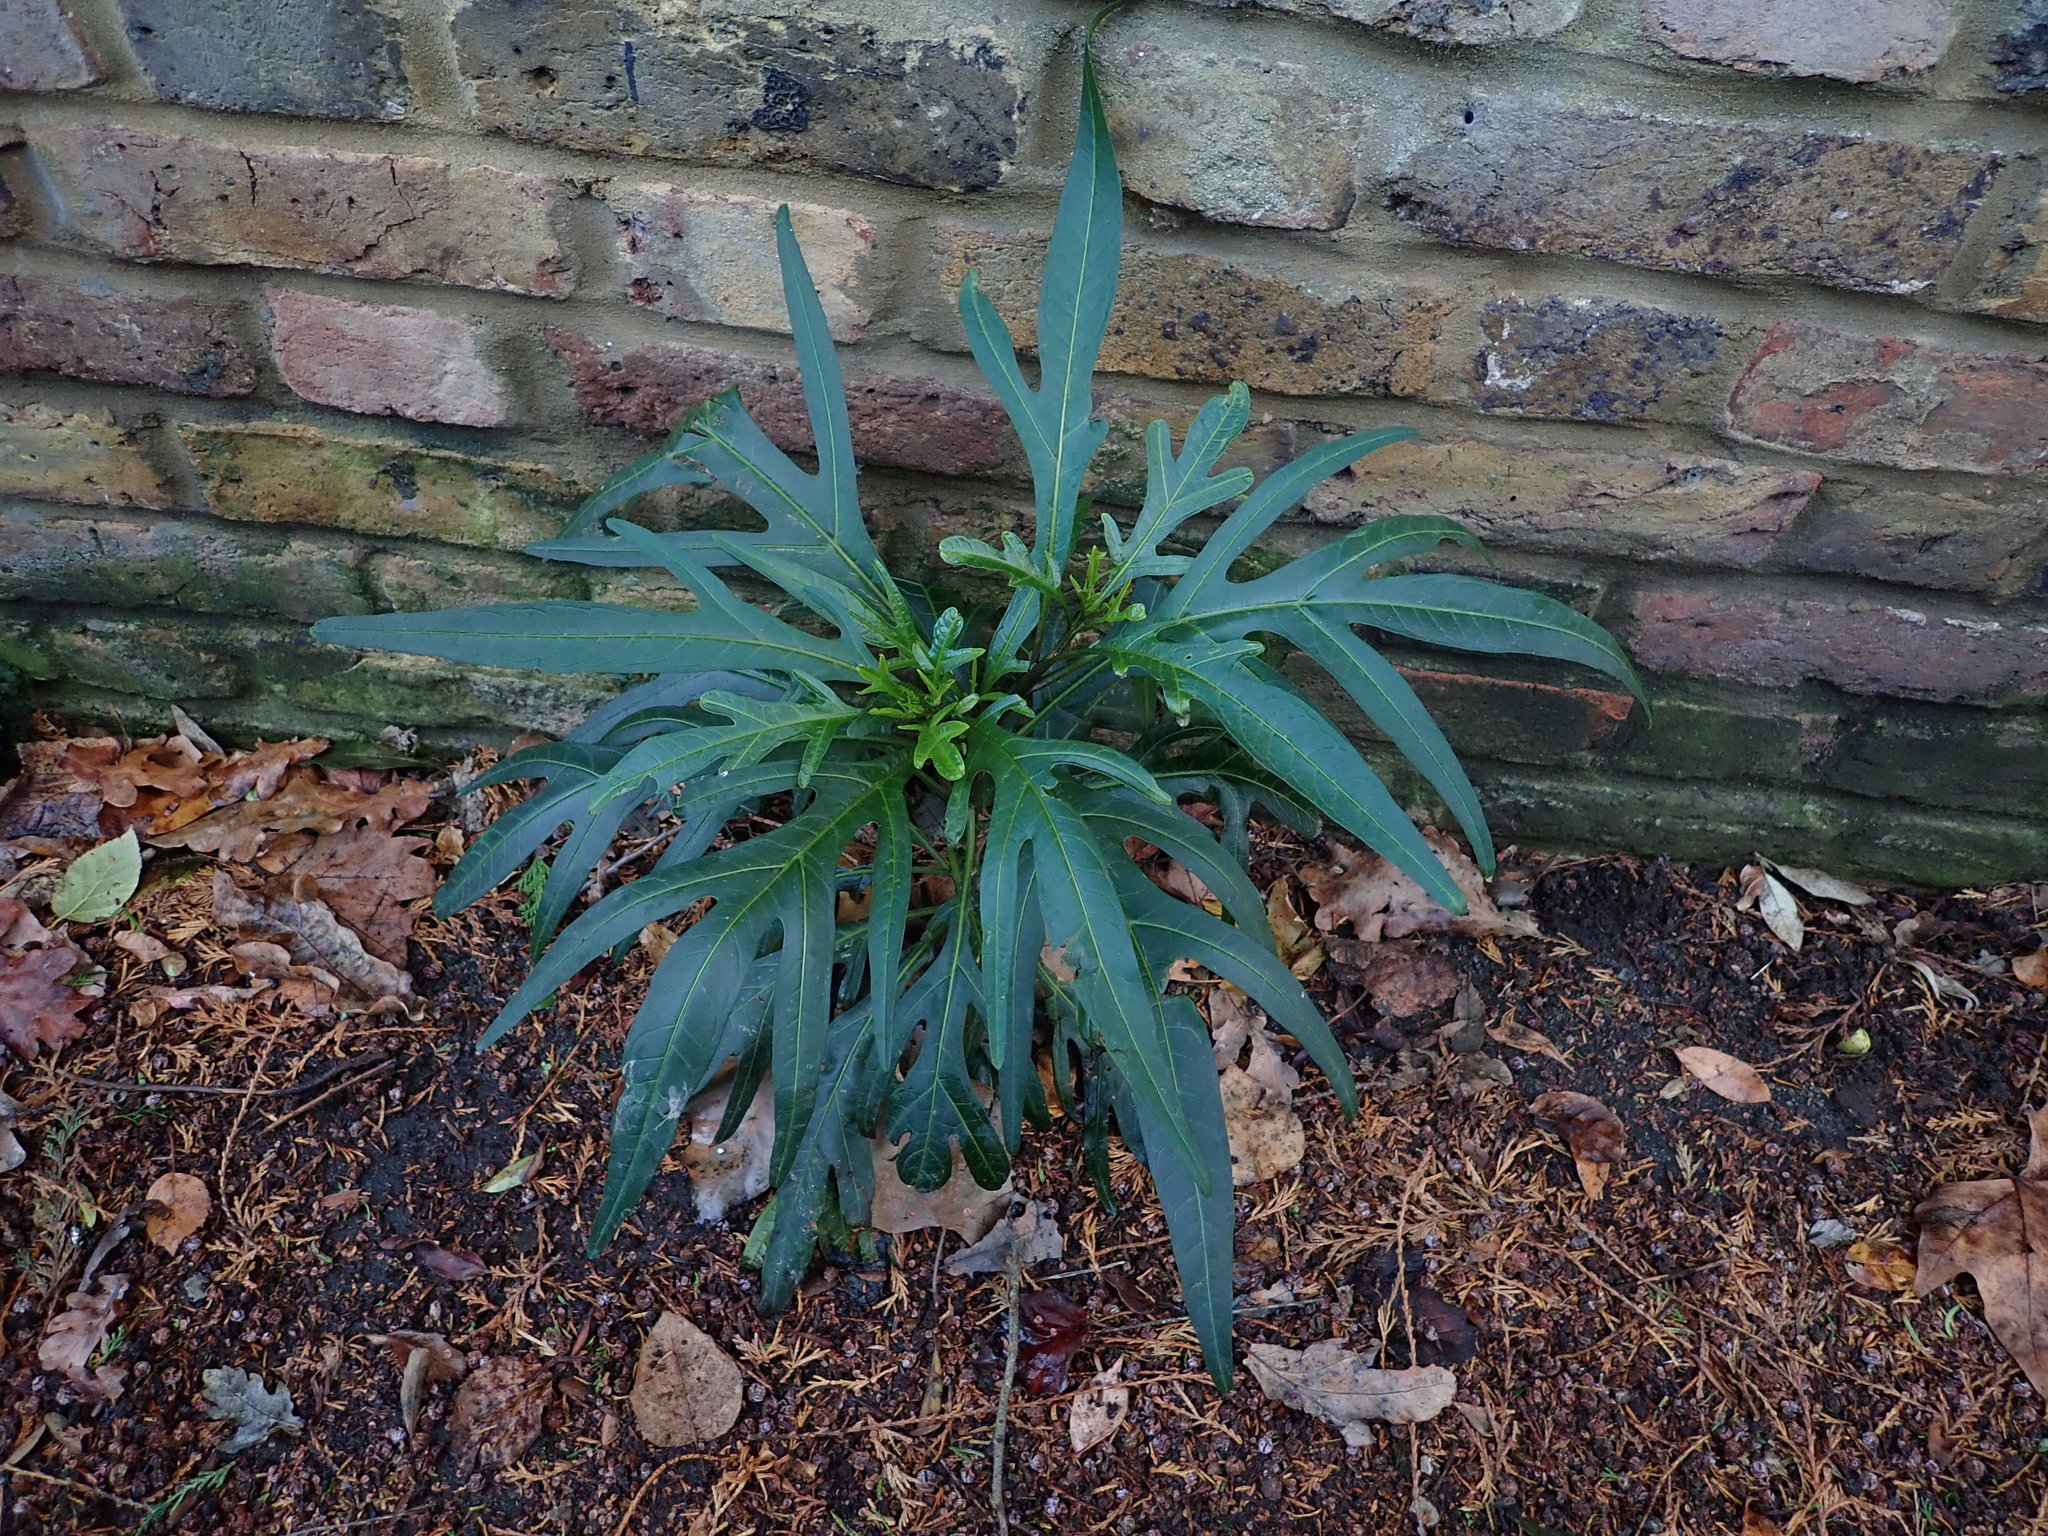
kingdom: Plantae
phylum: Tracheophyta
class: Magnoliopsida
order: Solanales
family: Solanaceae
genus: Solanum
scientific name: Solanum laciniatum
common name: Kangaroo-apple
